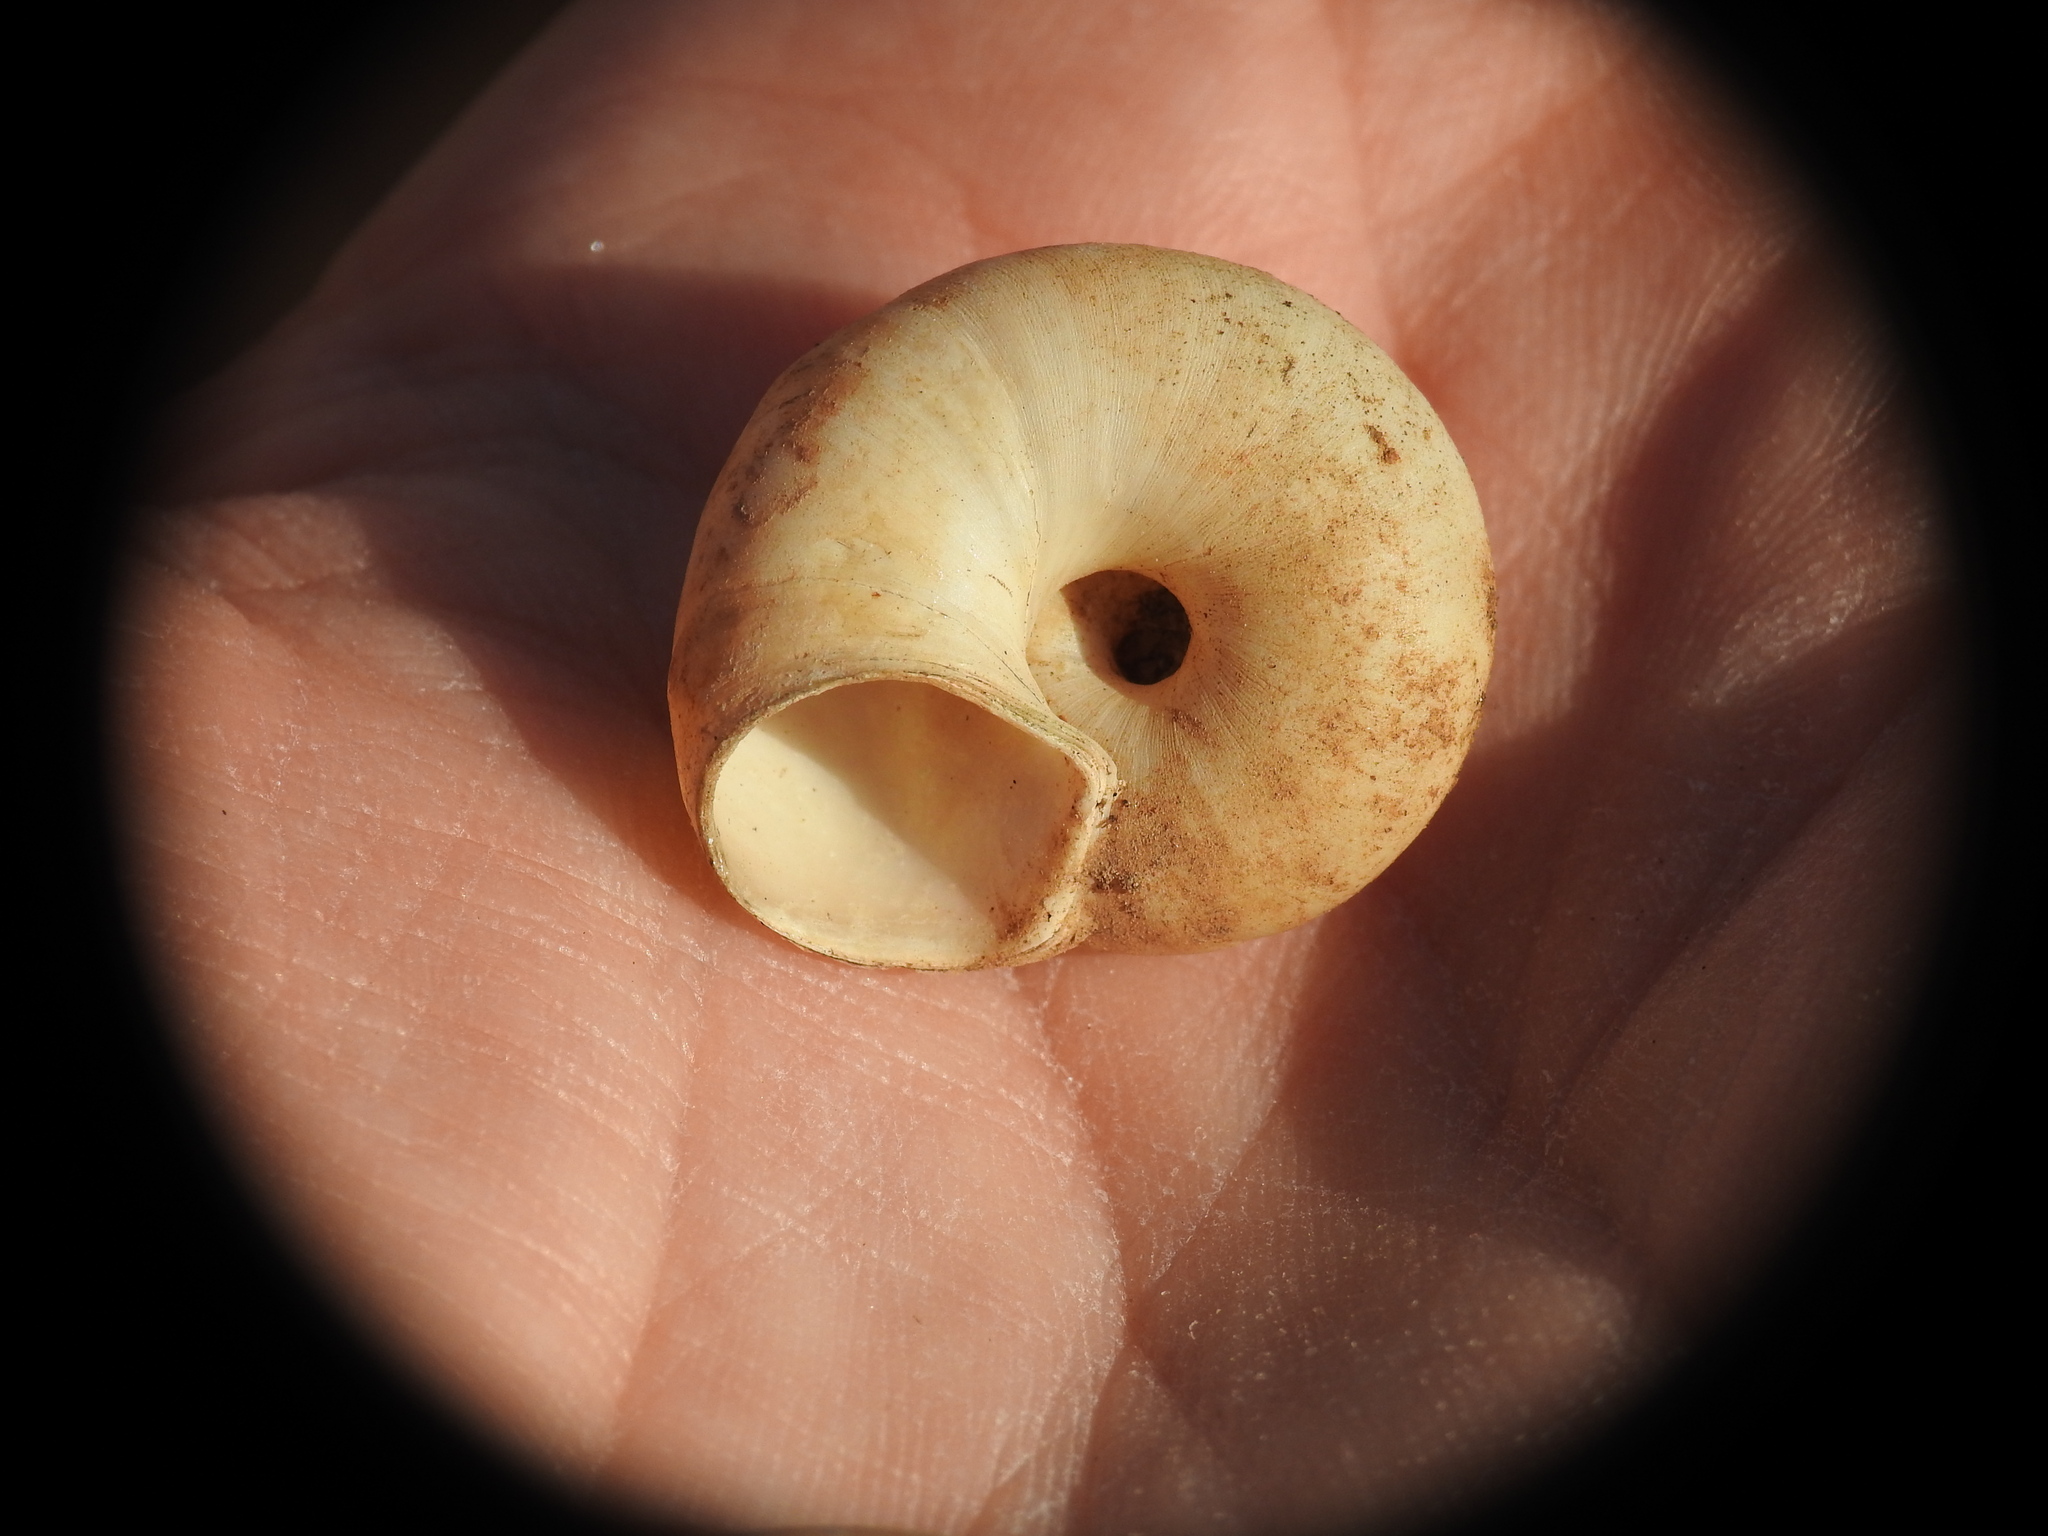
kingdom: Animalia
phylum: Mollusca
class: Gastropoda
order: Stylommatophora
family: Oxychilidae
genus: Oxychilus
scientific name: Oxychilus superfluus
